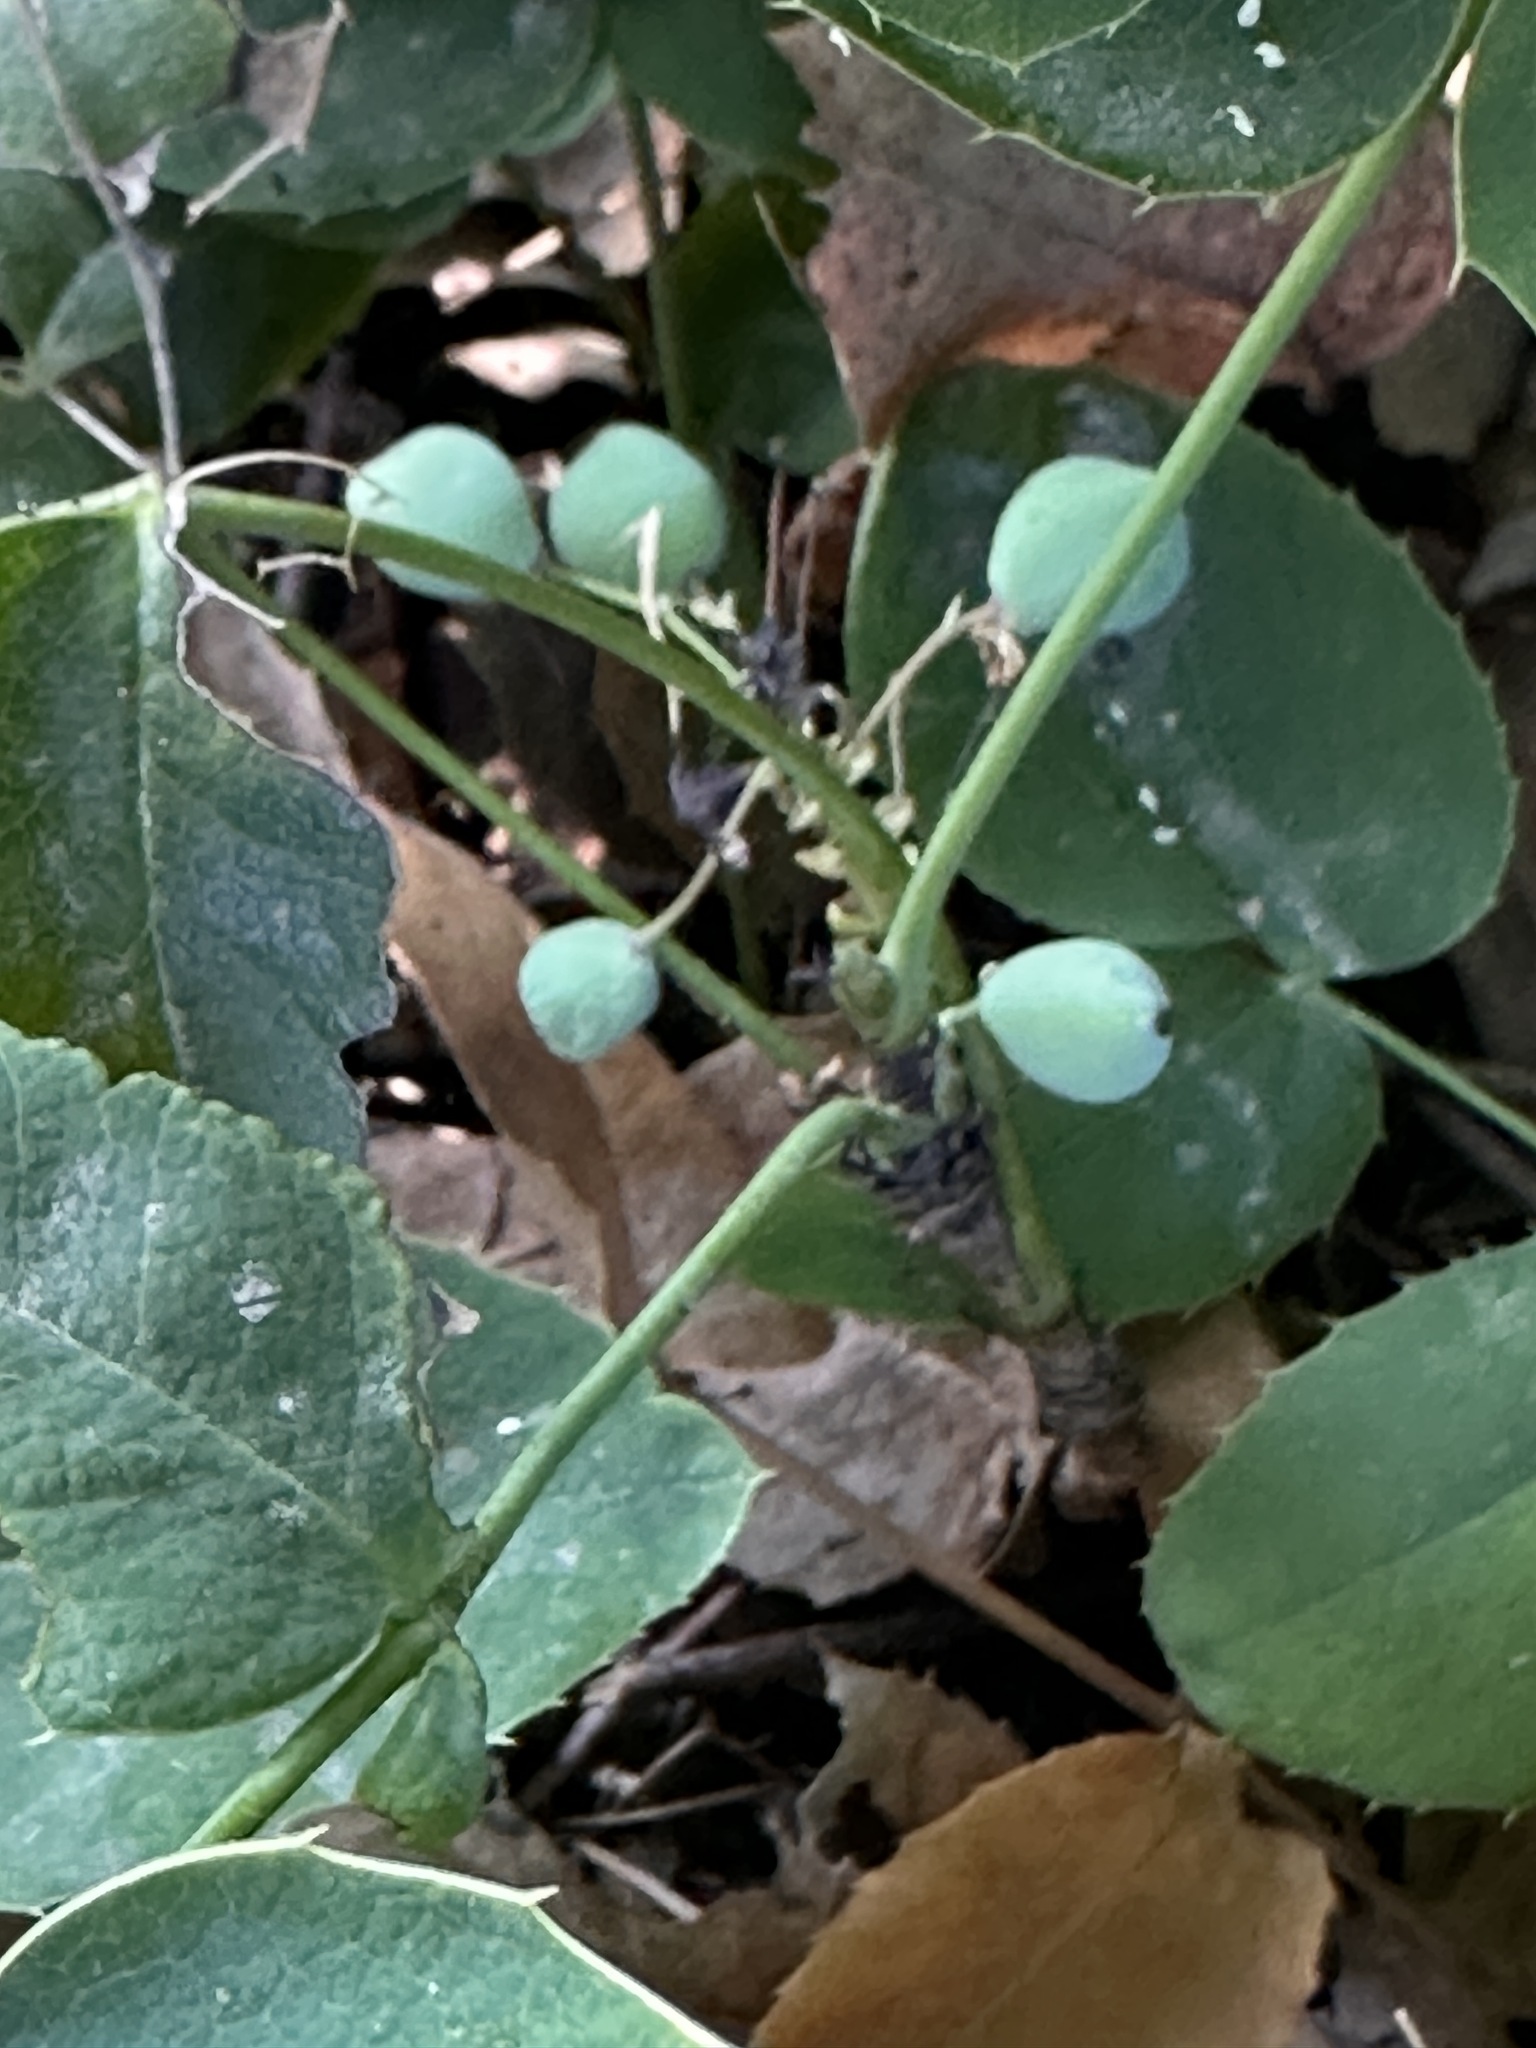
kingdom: Plantae
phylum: Tracheophyta
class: Magnoliopsida
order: Ranunculales
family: Berberidaceae
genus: Mahonia
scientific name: Mahonia repens
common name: Creeping oregon-grape
